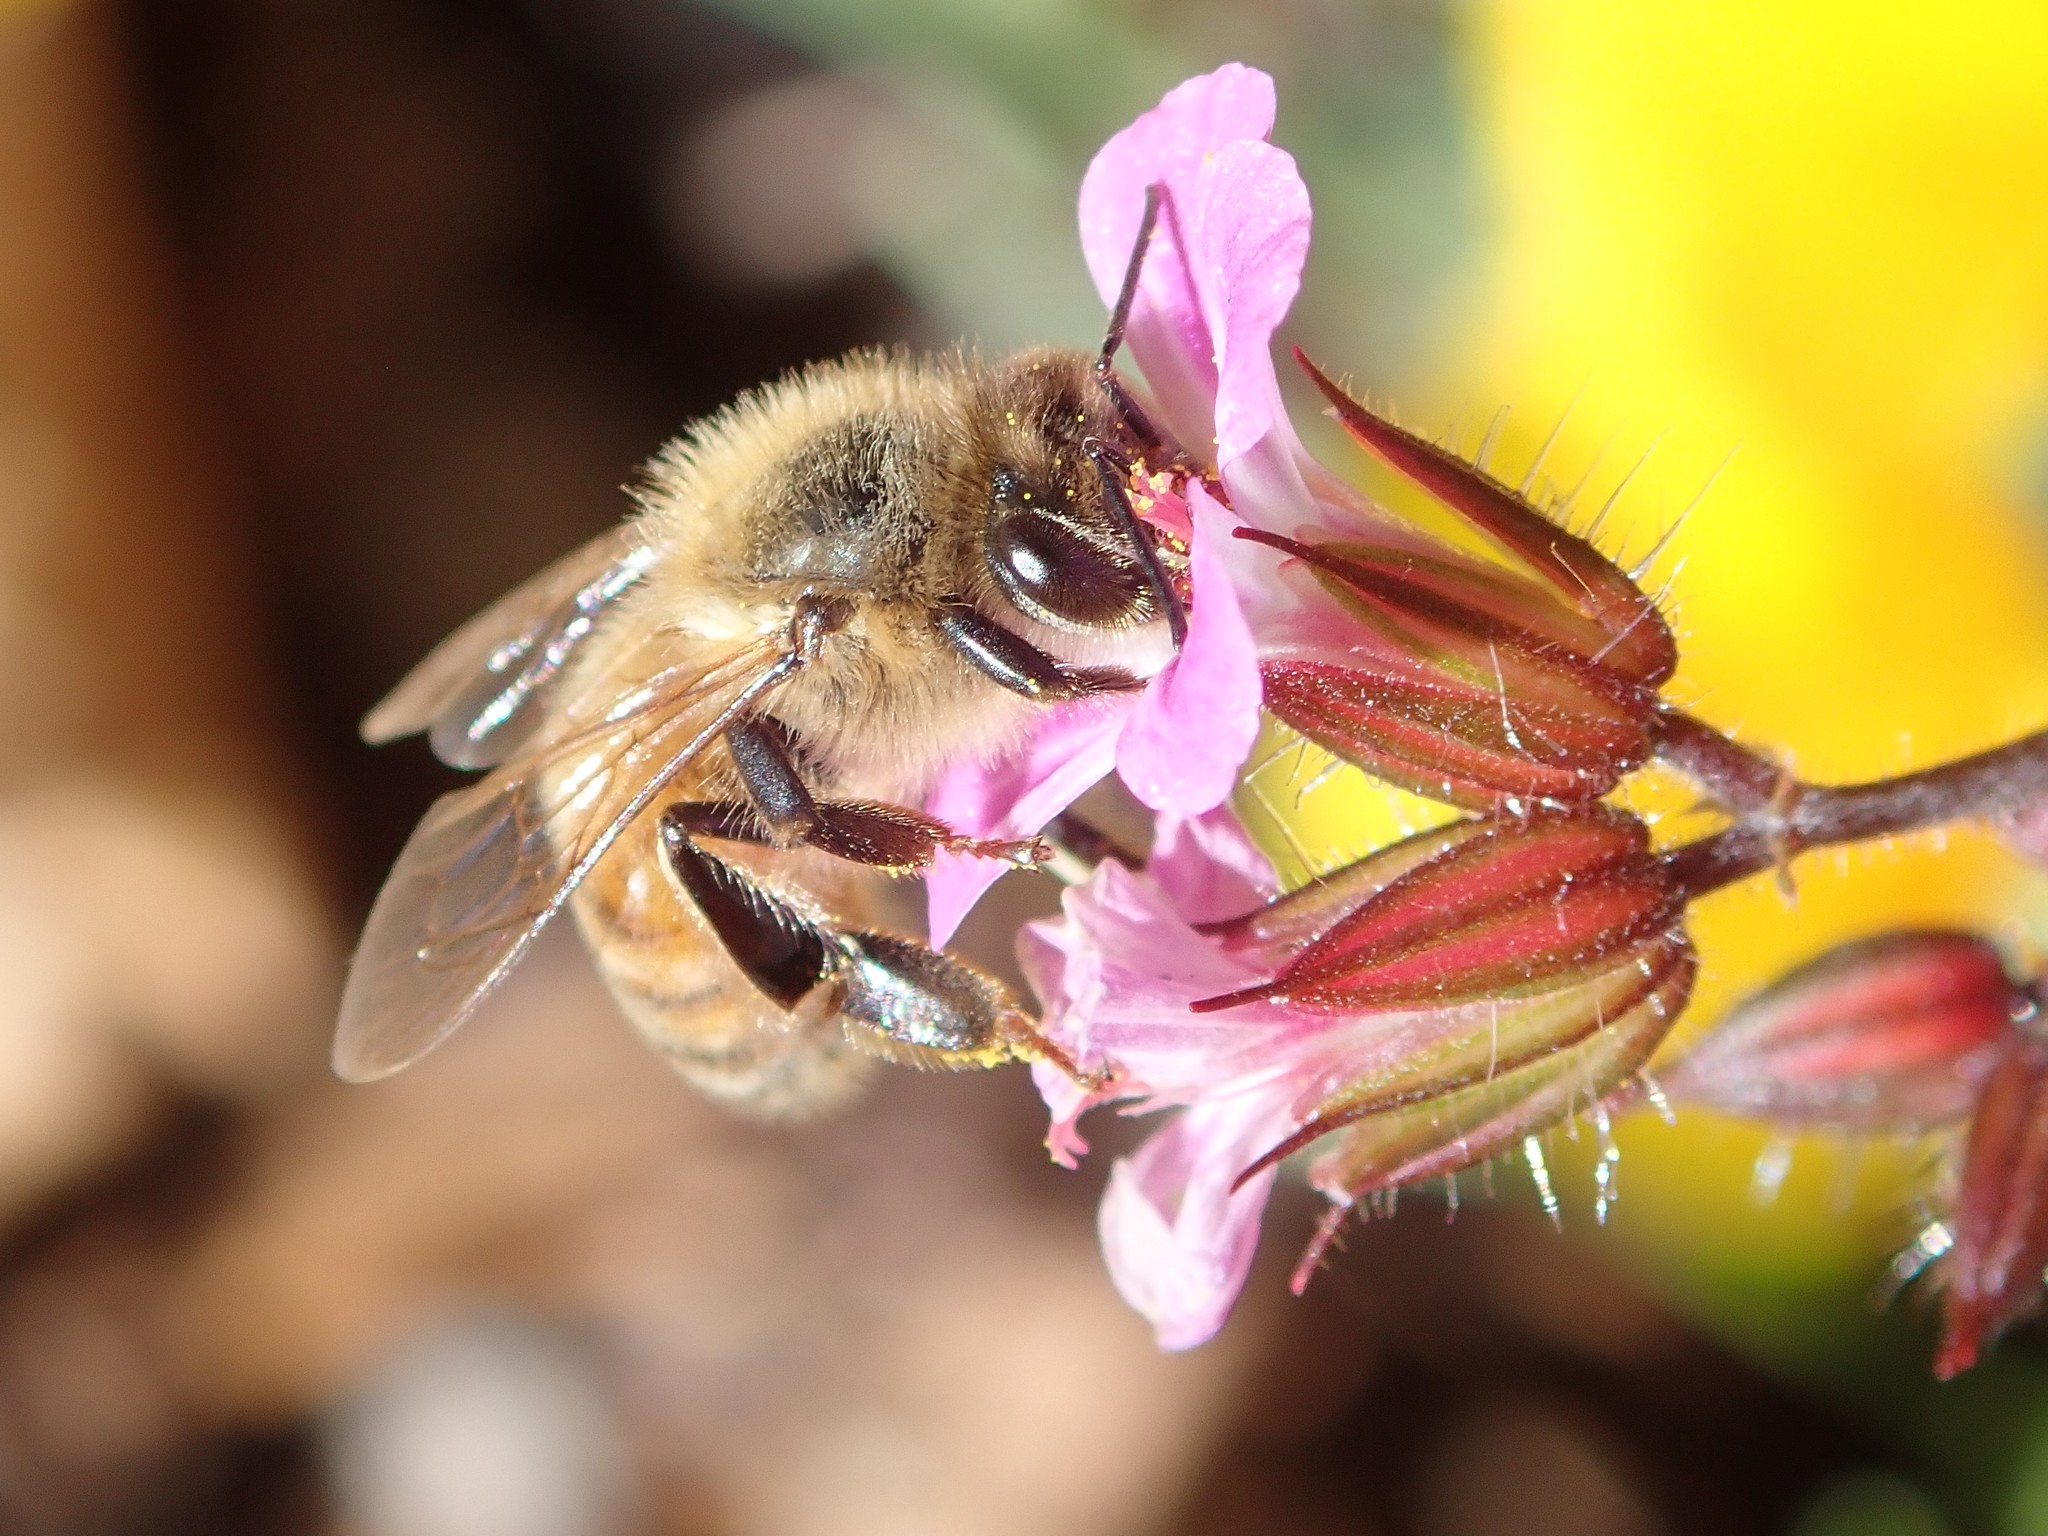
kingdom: Animalia
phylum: Arthropoda
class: Insecta
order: Hymenoptera
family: Apidae
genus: Apis
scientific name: Apis mellifera
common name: Honey bee
